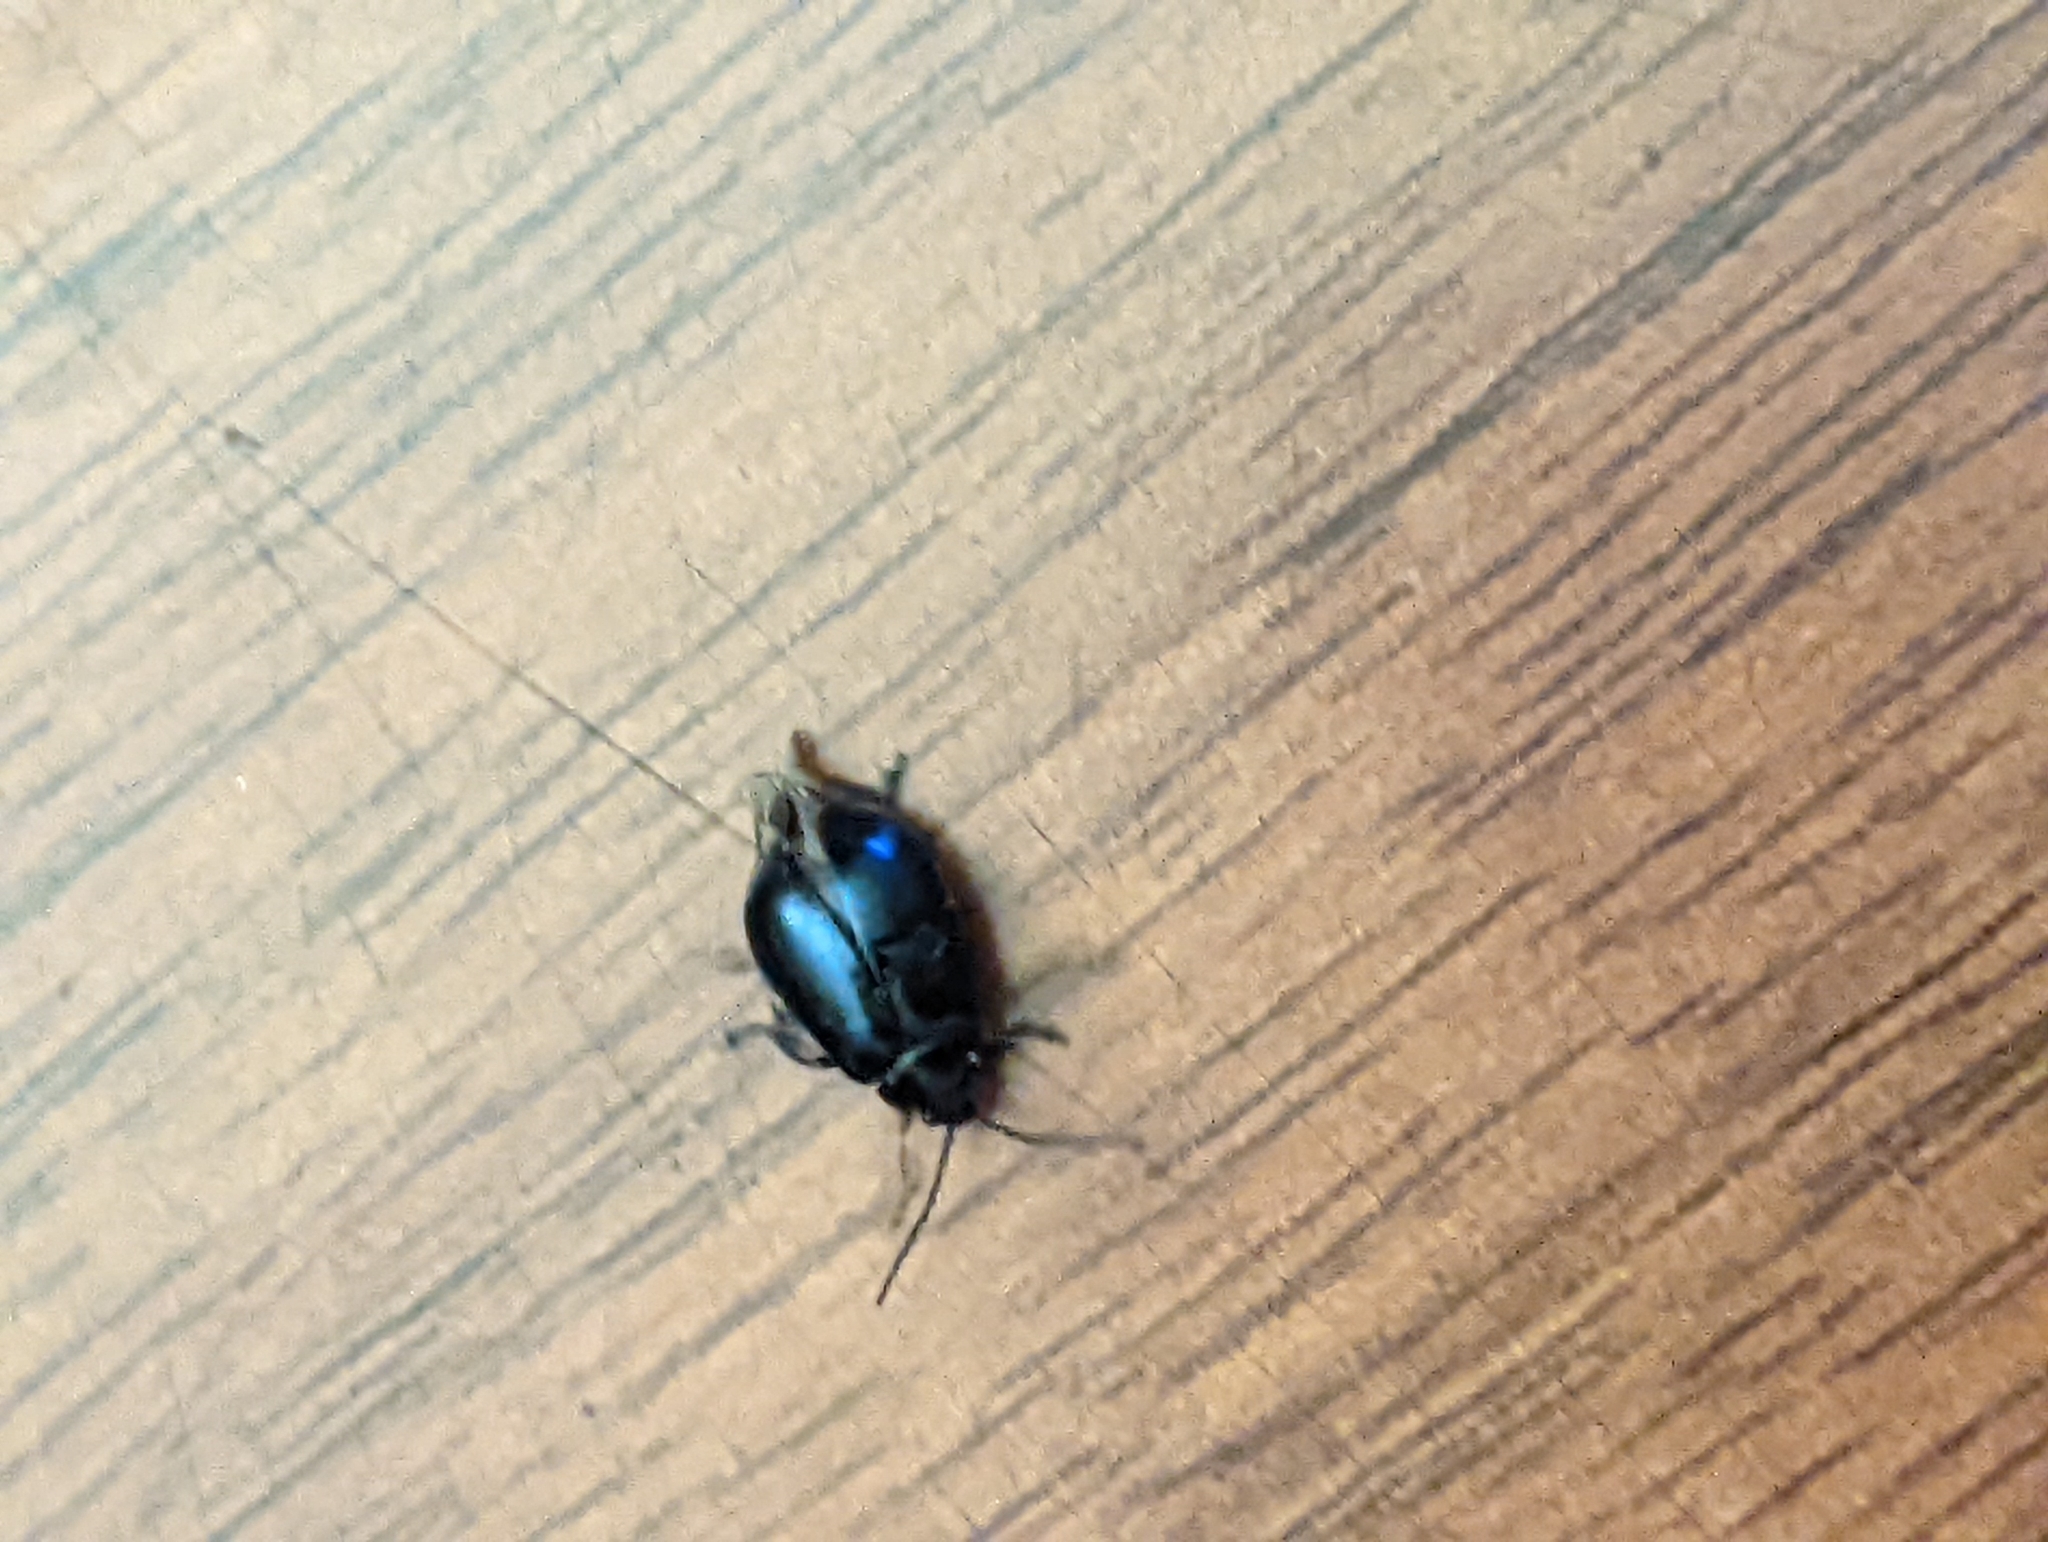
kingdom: Animalia
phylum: Arthropoda
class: Insecta
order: Coleoptera
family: Chrysomelidae
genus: Agelastica
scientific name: Agelastica alni
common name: Alder leaf beetle
